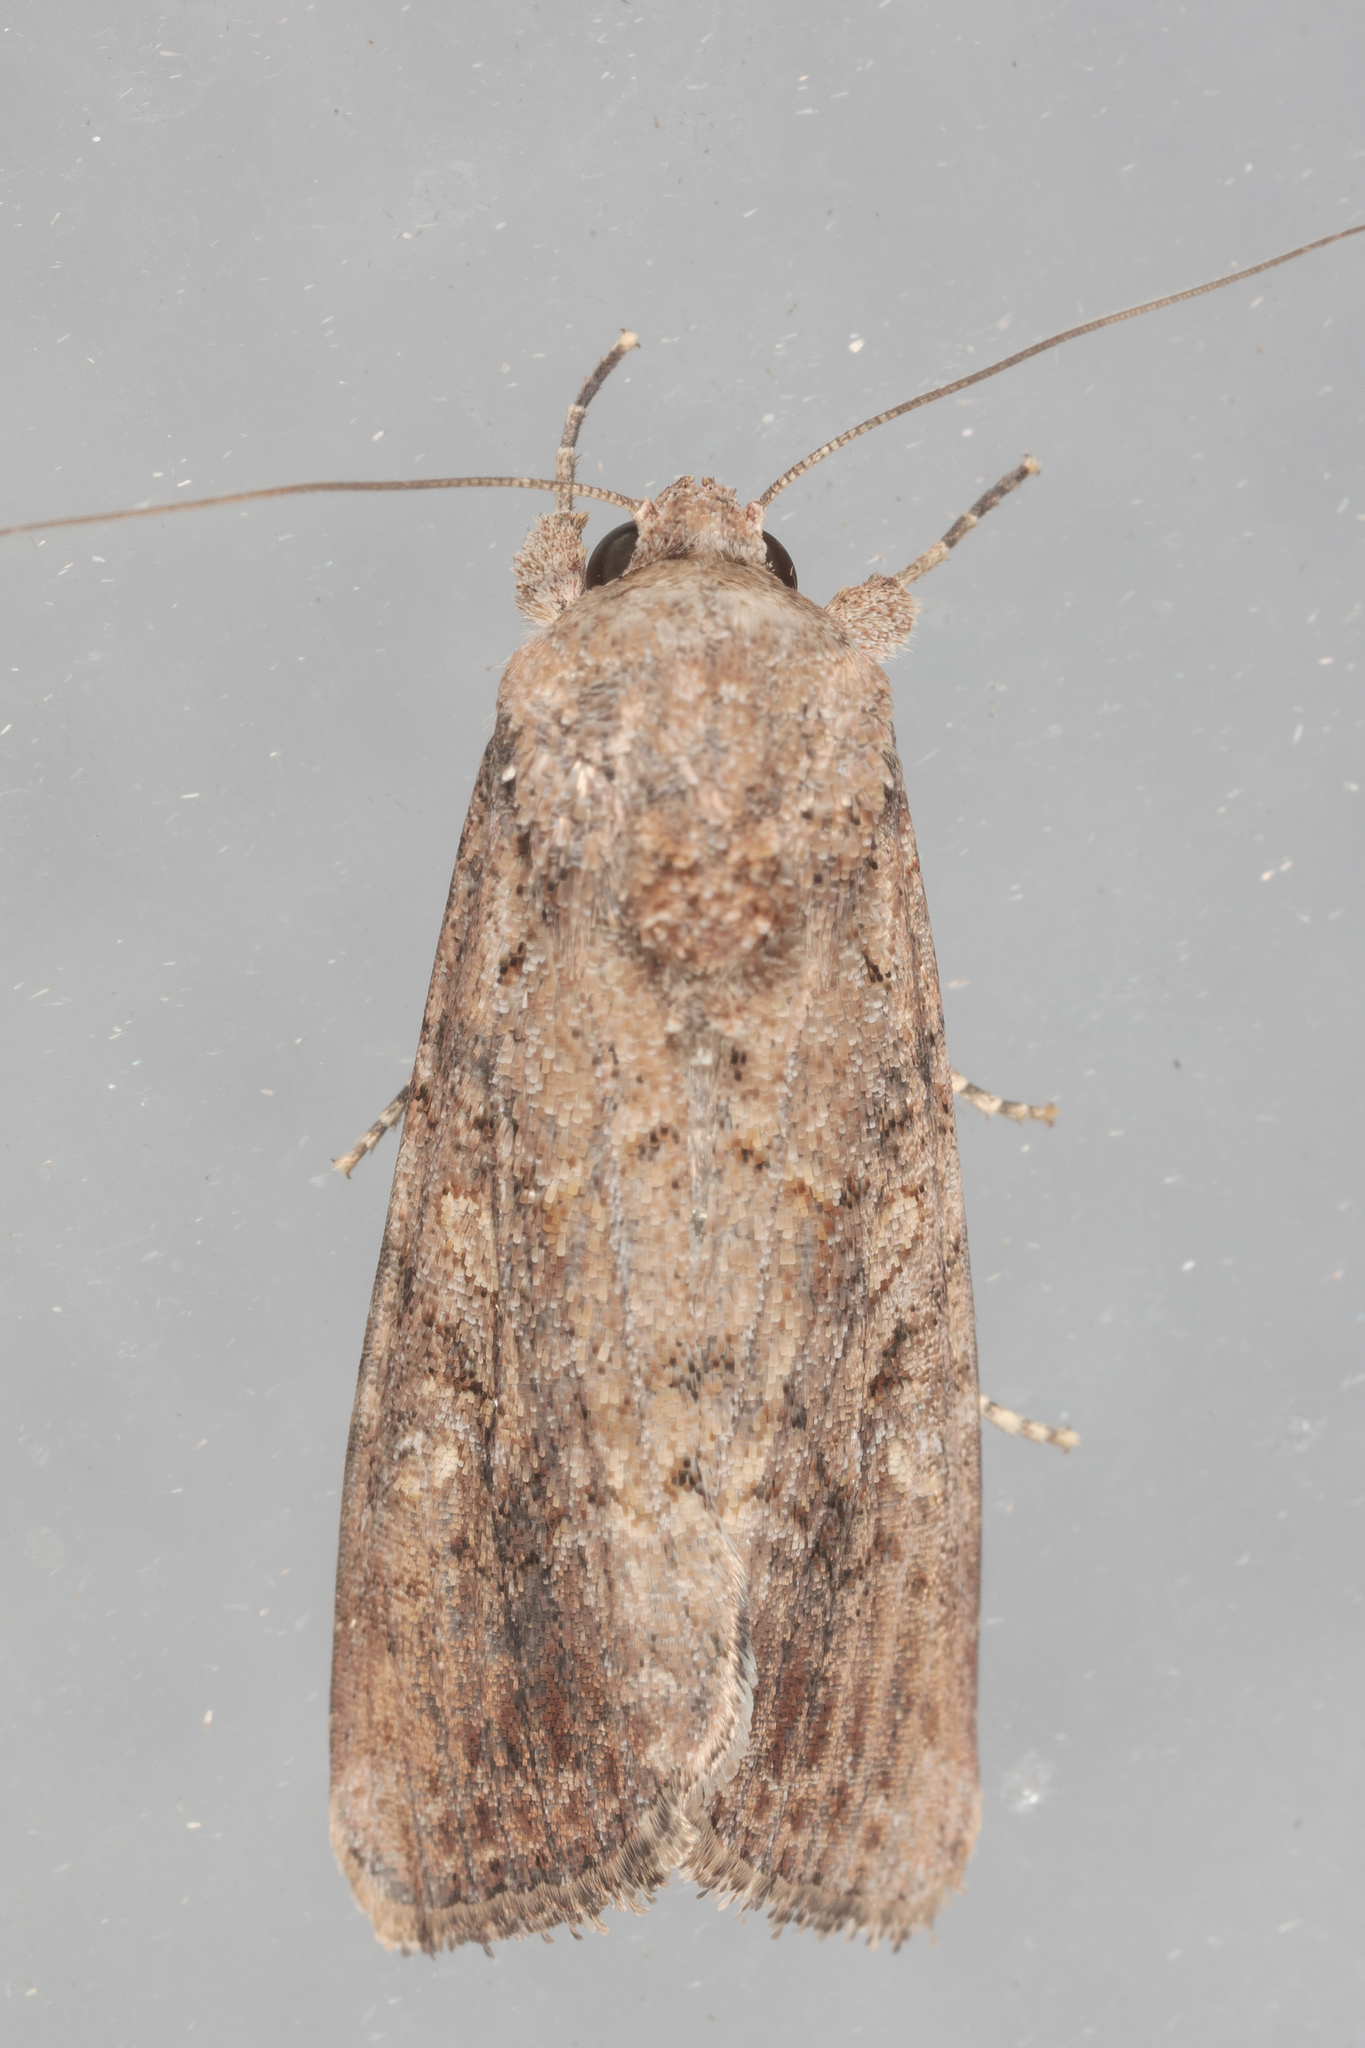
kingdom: Animalia
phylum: Arthropoda
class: Insecta
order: Lepidoptera
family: Noctuidae
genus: Spodoptera
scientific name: Spodoptera exigua
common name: Beet armyworm
